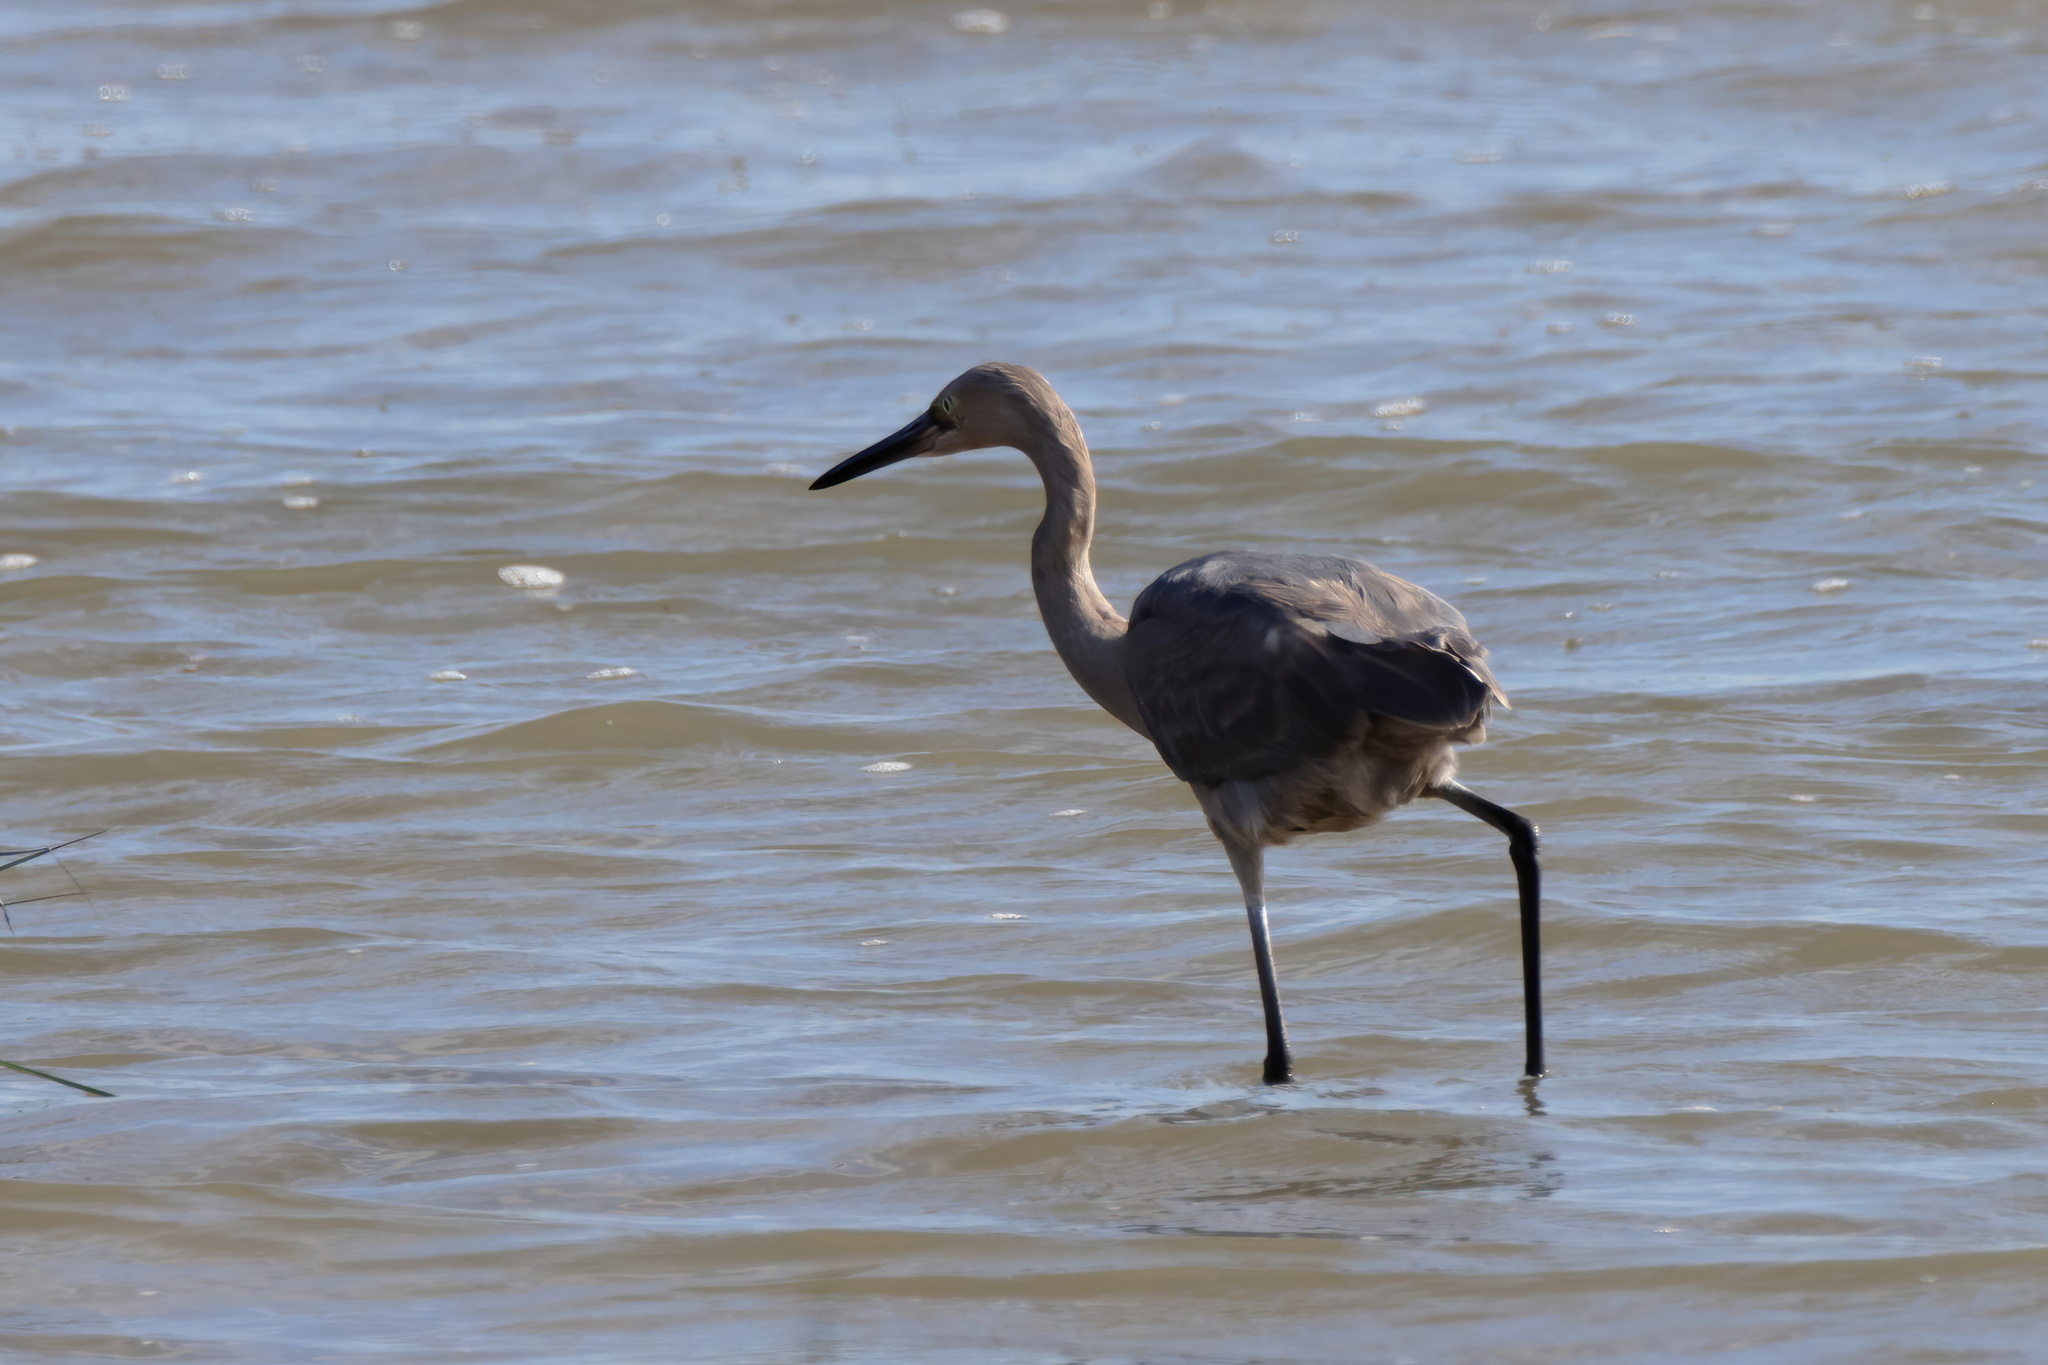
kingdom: Animalia
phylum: Chordata
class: Aves
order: Pelecaniformes
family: Ardeidae
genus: Egretta
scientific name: Egretta rufescens
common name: Reddish egret
